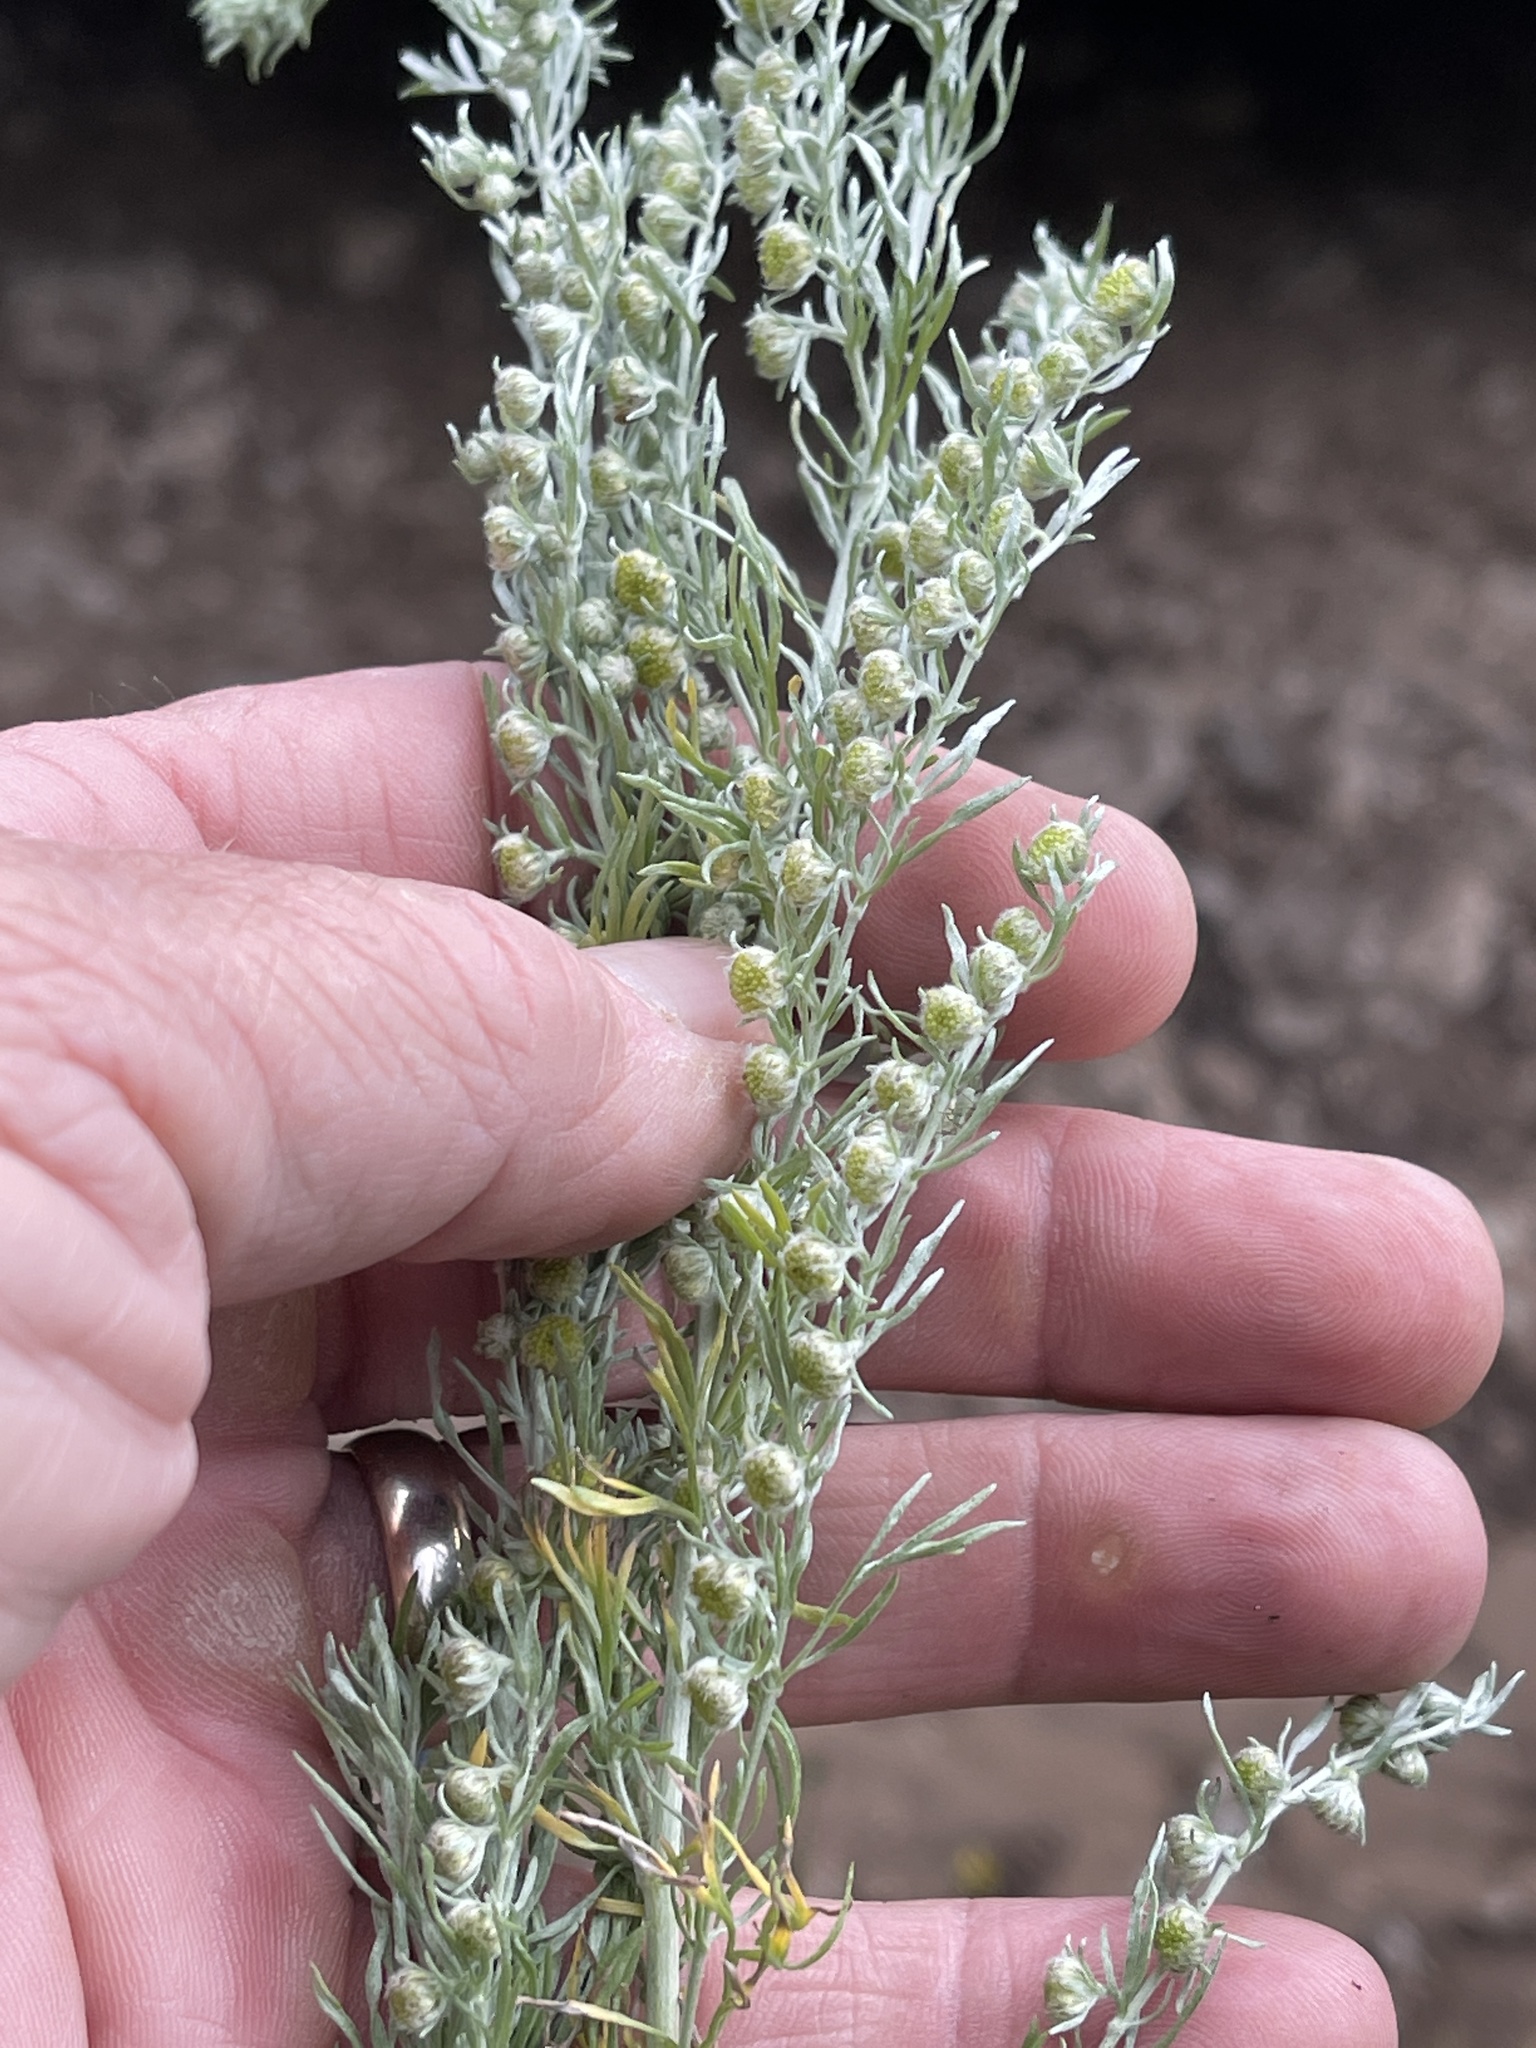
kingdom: Plantae
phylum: Tracheophyta
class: Magnoliopsida
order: Asterales
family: Asteraceae
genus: Artemisia
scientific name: Artemisia frigida
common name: Prairie sagewort
